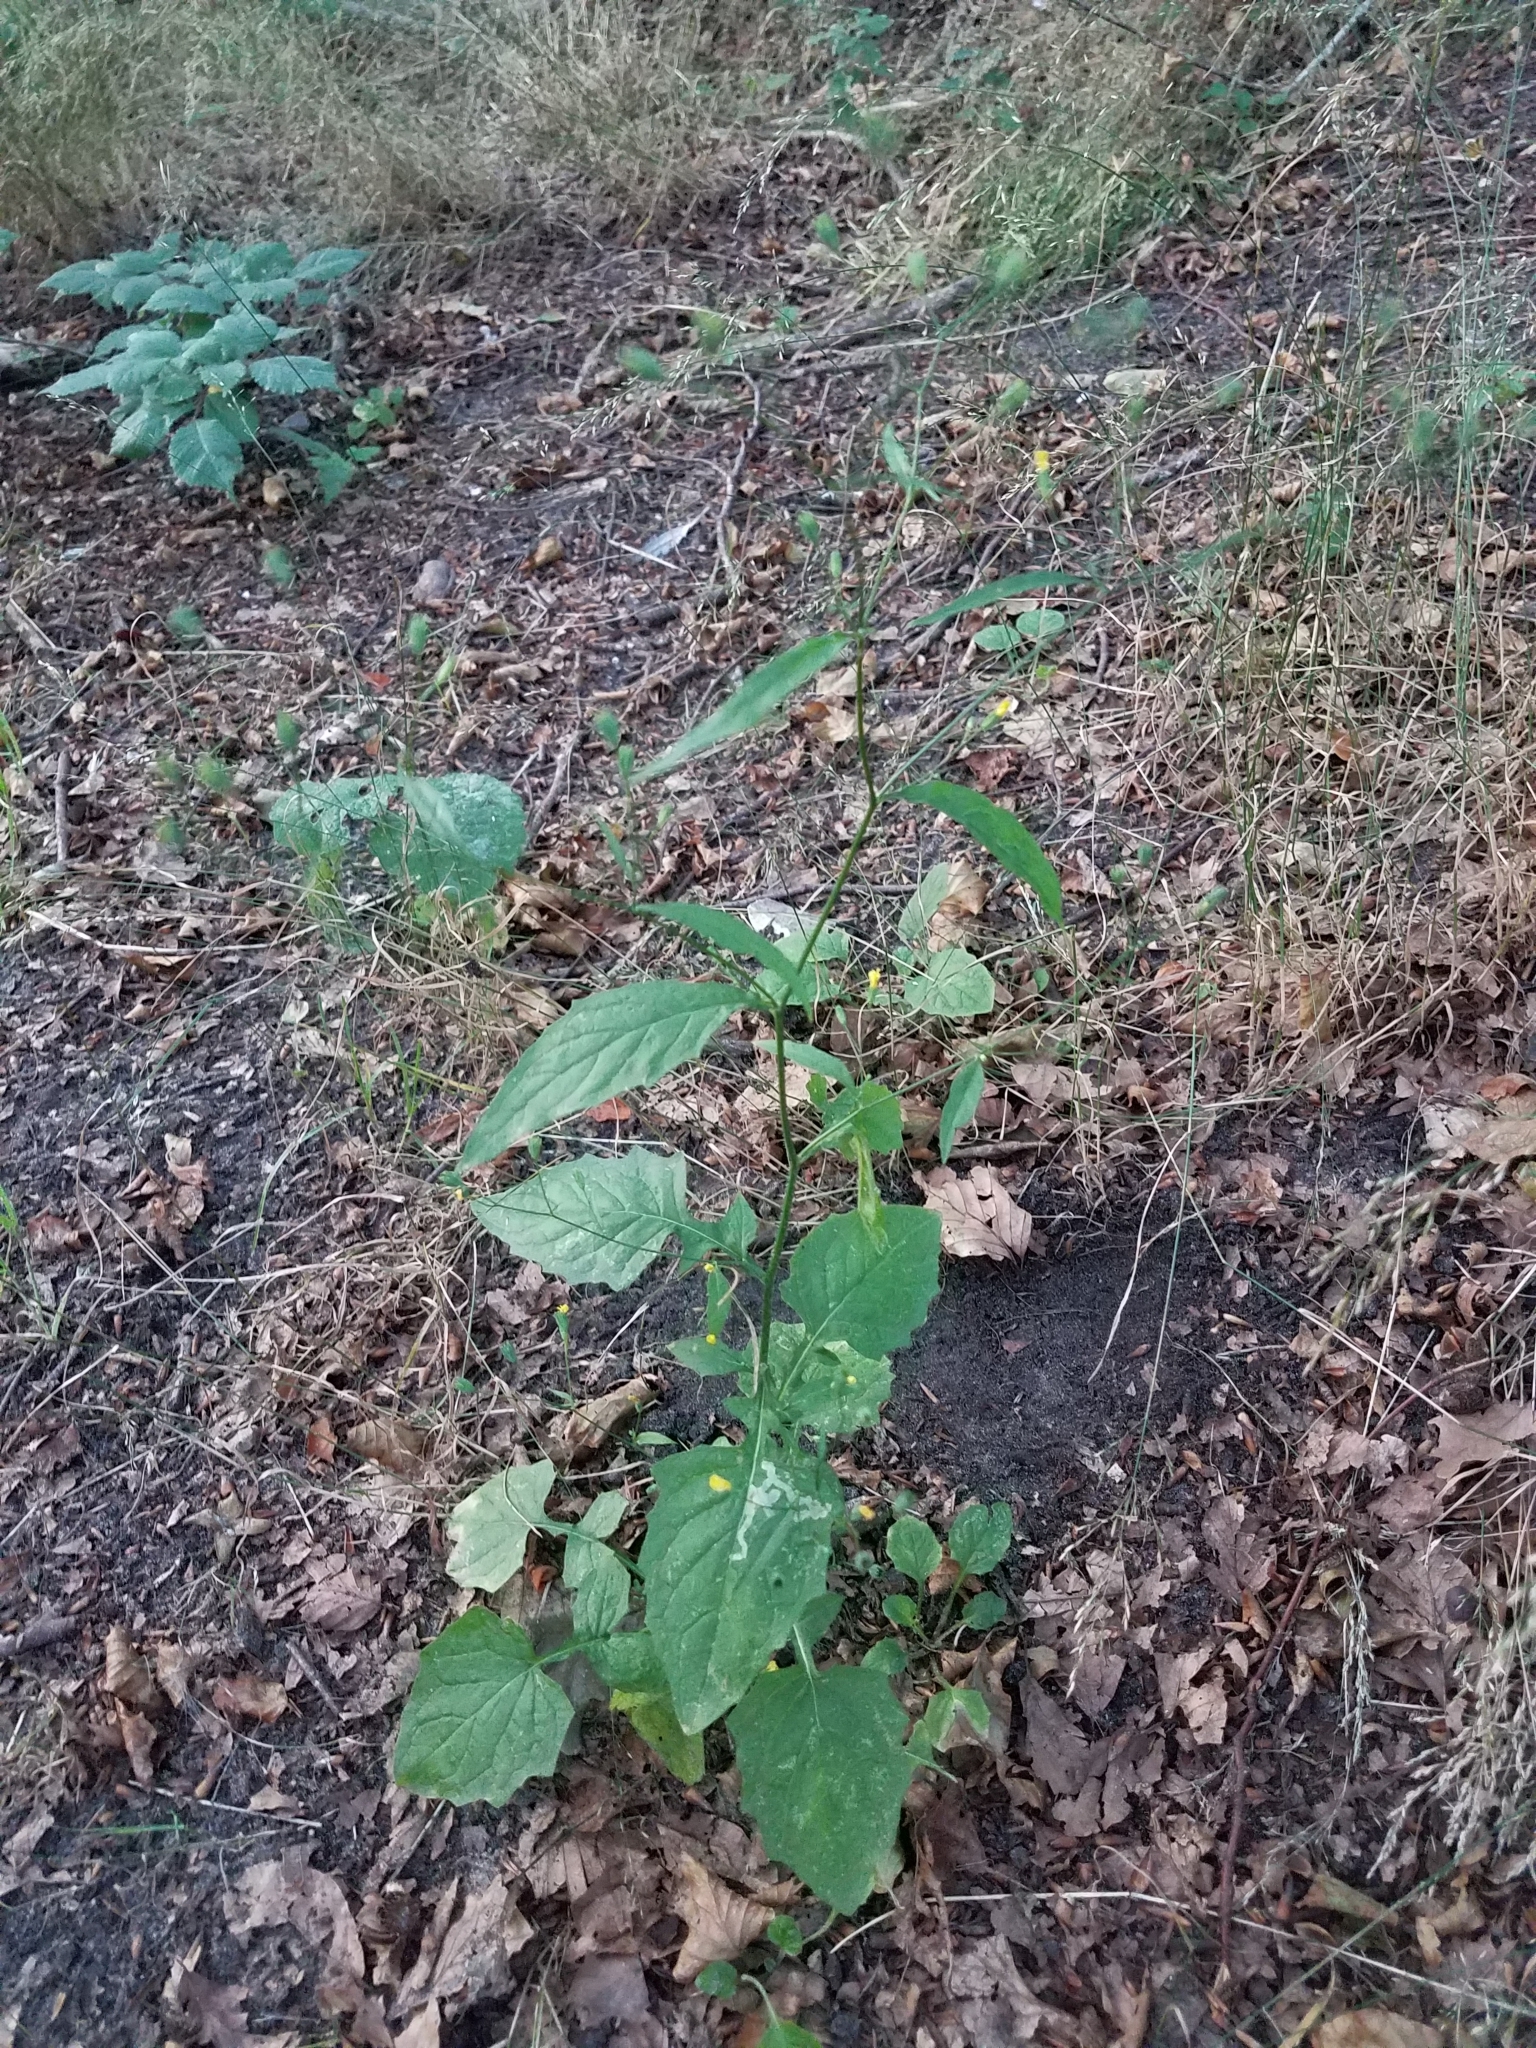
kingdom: Plantae
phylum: Tracheophyta
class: Magnoliopsida
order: Asterales
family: Asteraceae
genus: Lapsana
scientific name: Lapsana communis
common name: Nipplewort
